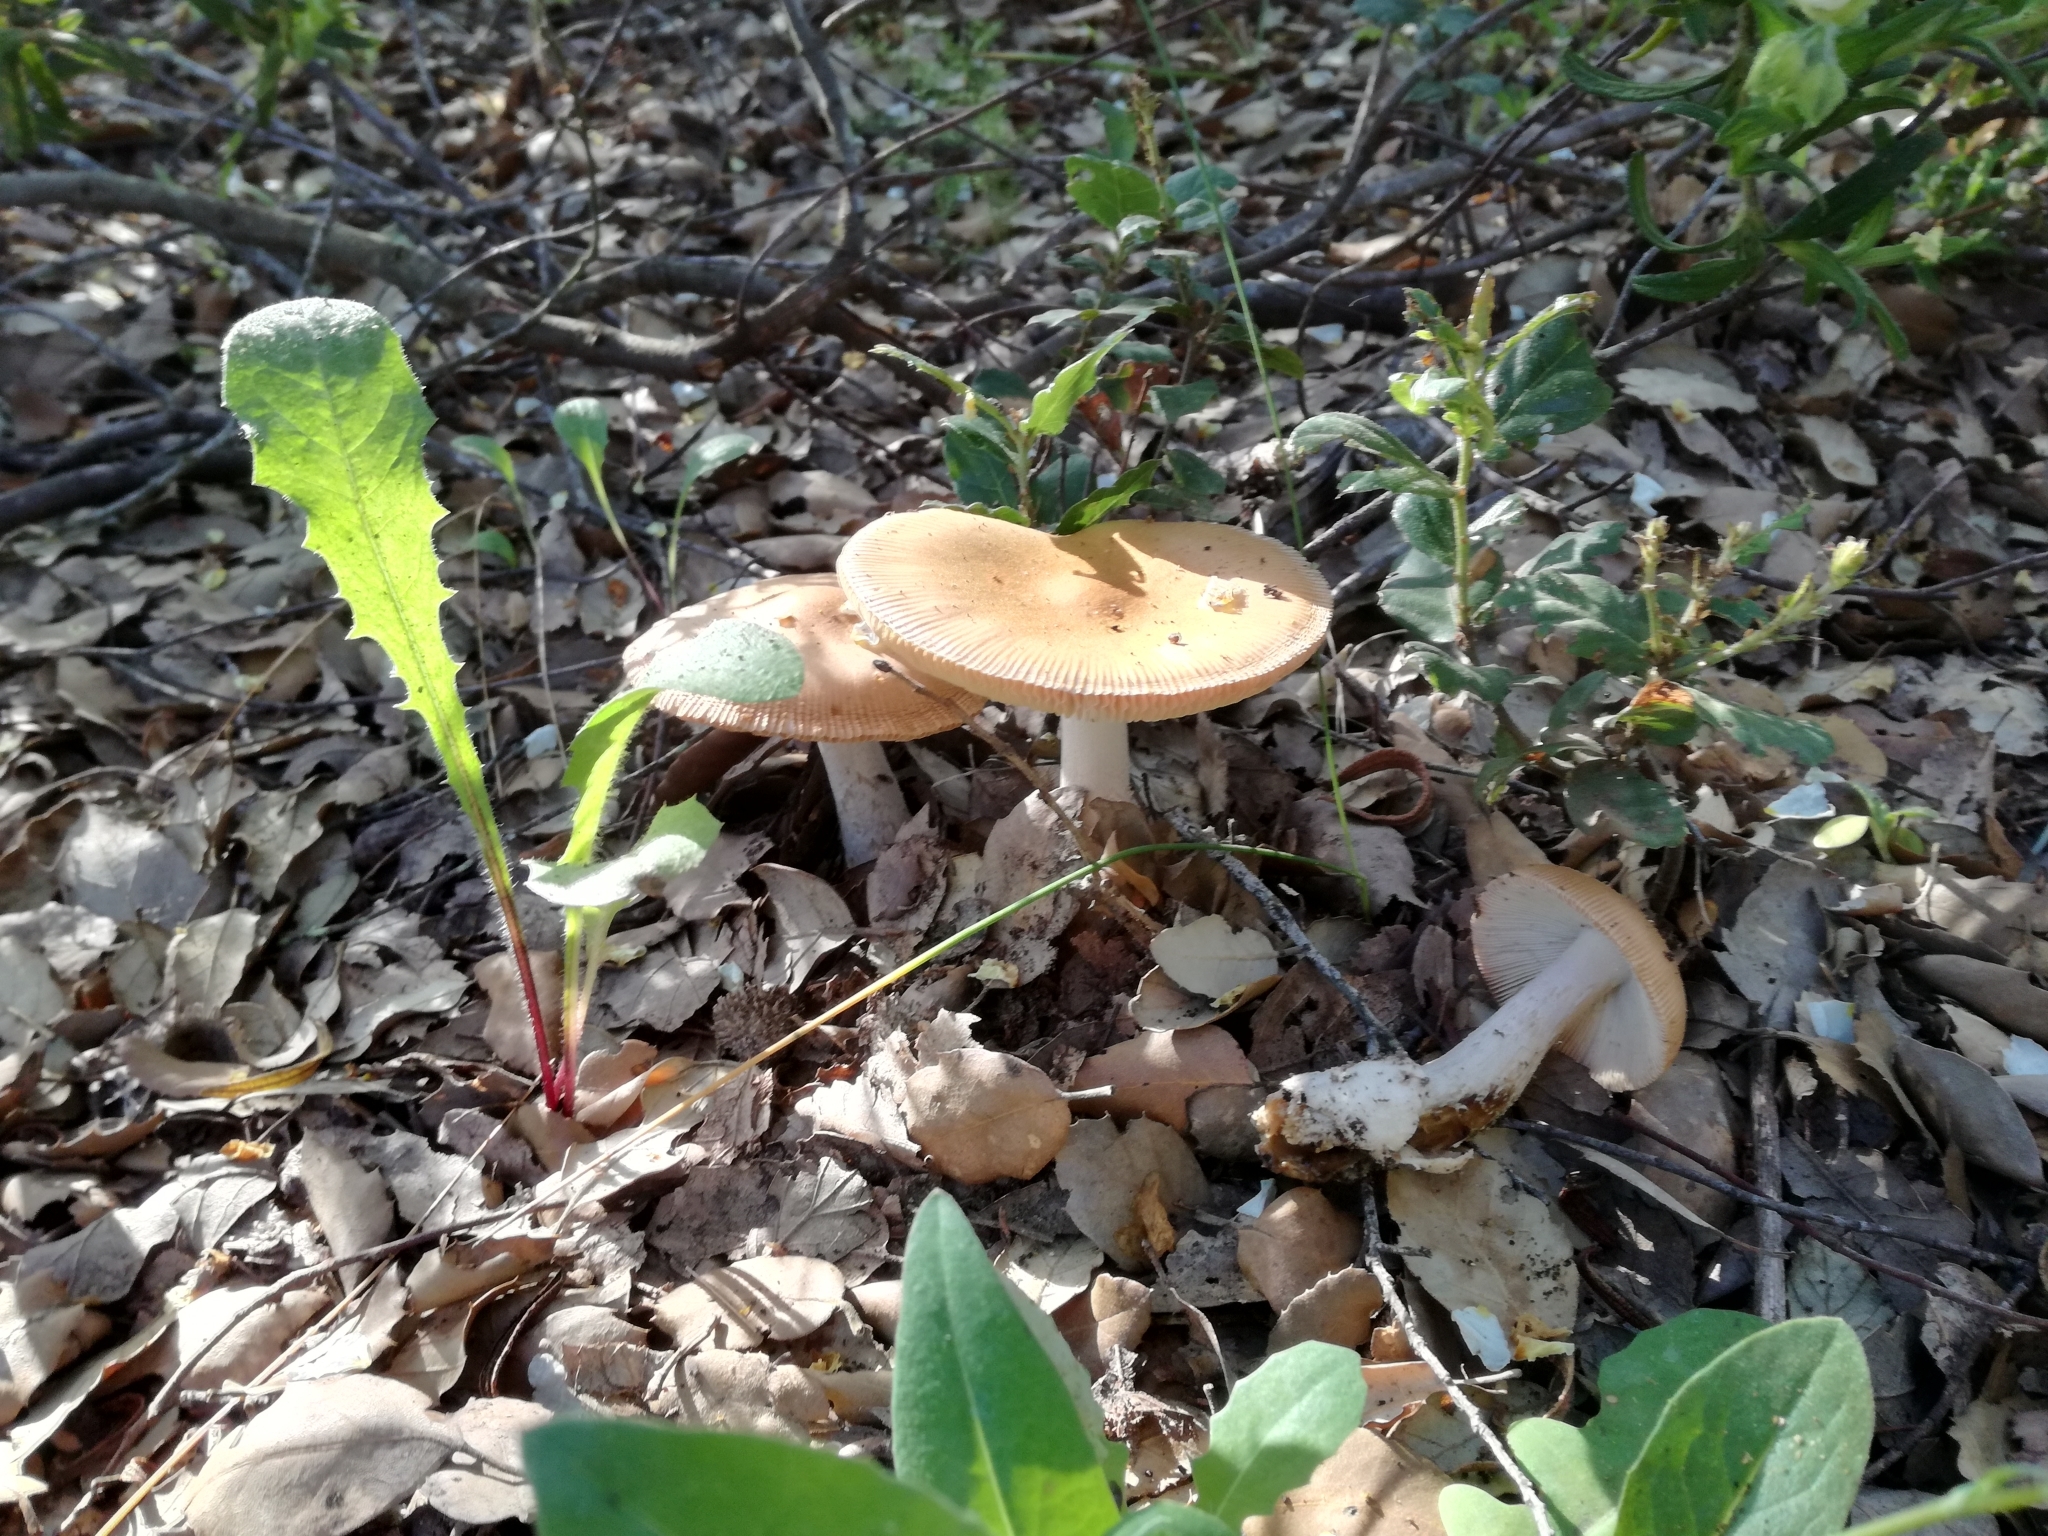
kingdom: Fungi
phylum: Basidiomycota
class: Agaricomycetes
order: Agaricales
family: Amanitaceae
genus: Amanita
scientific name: Amanita subnudipes
